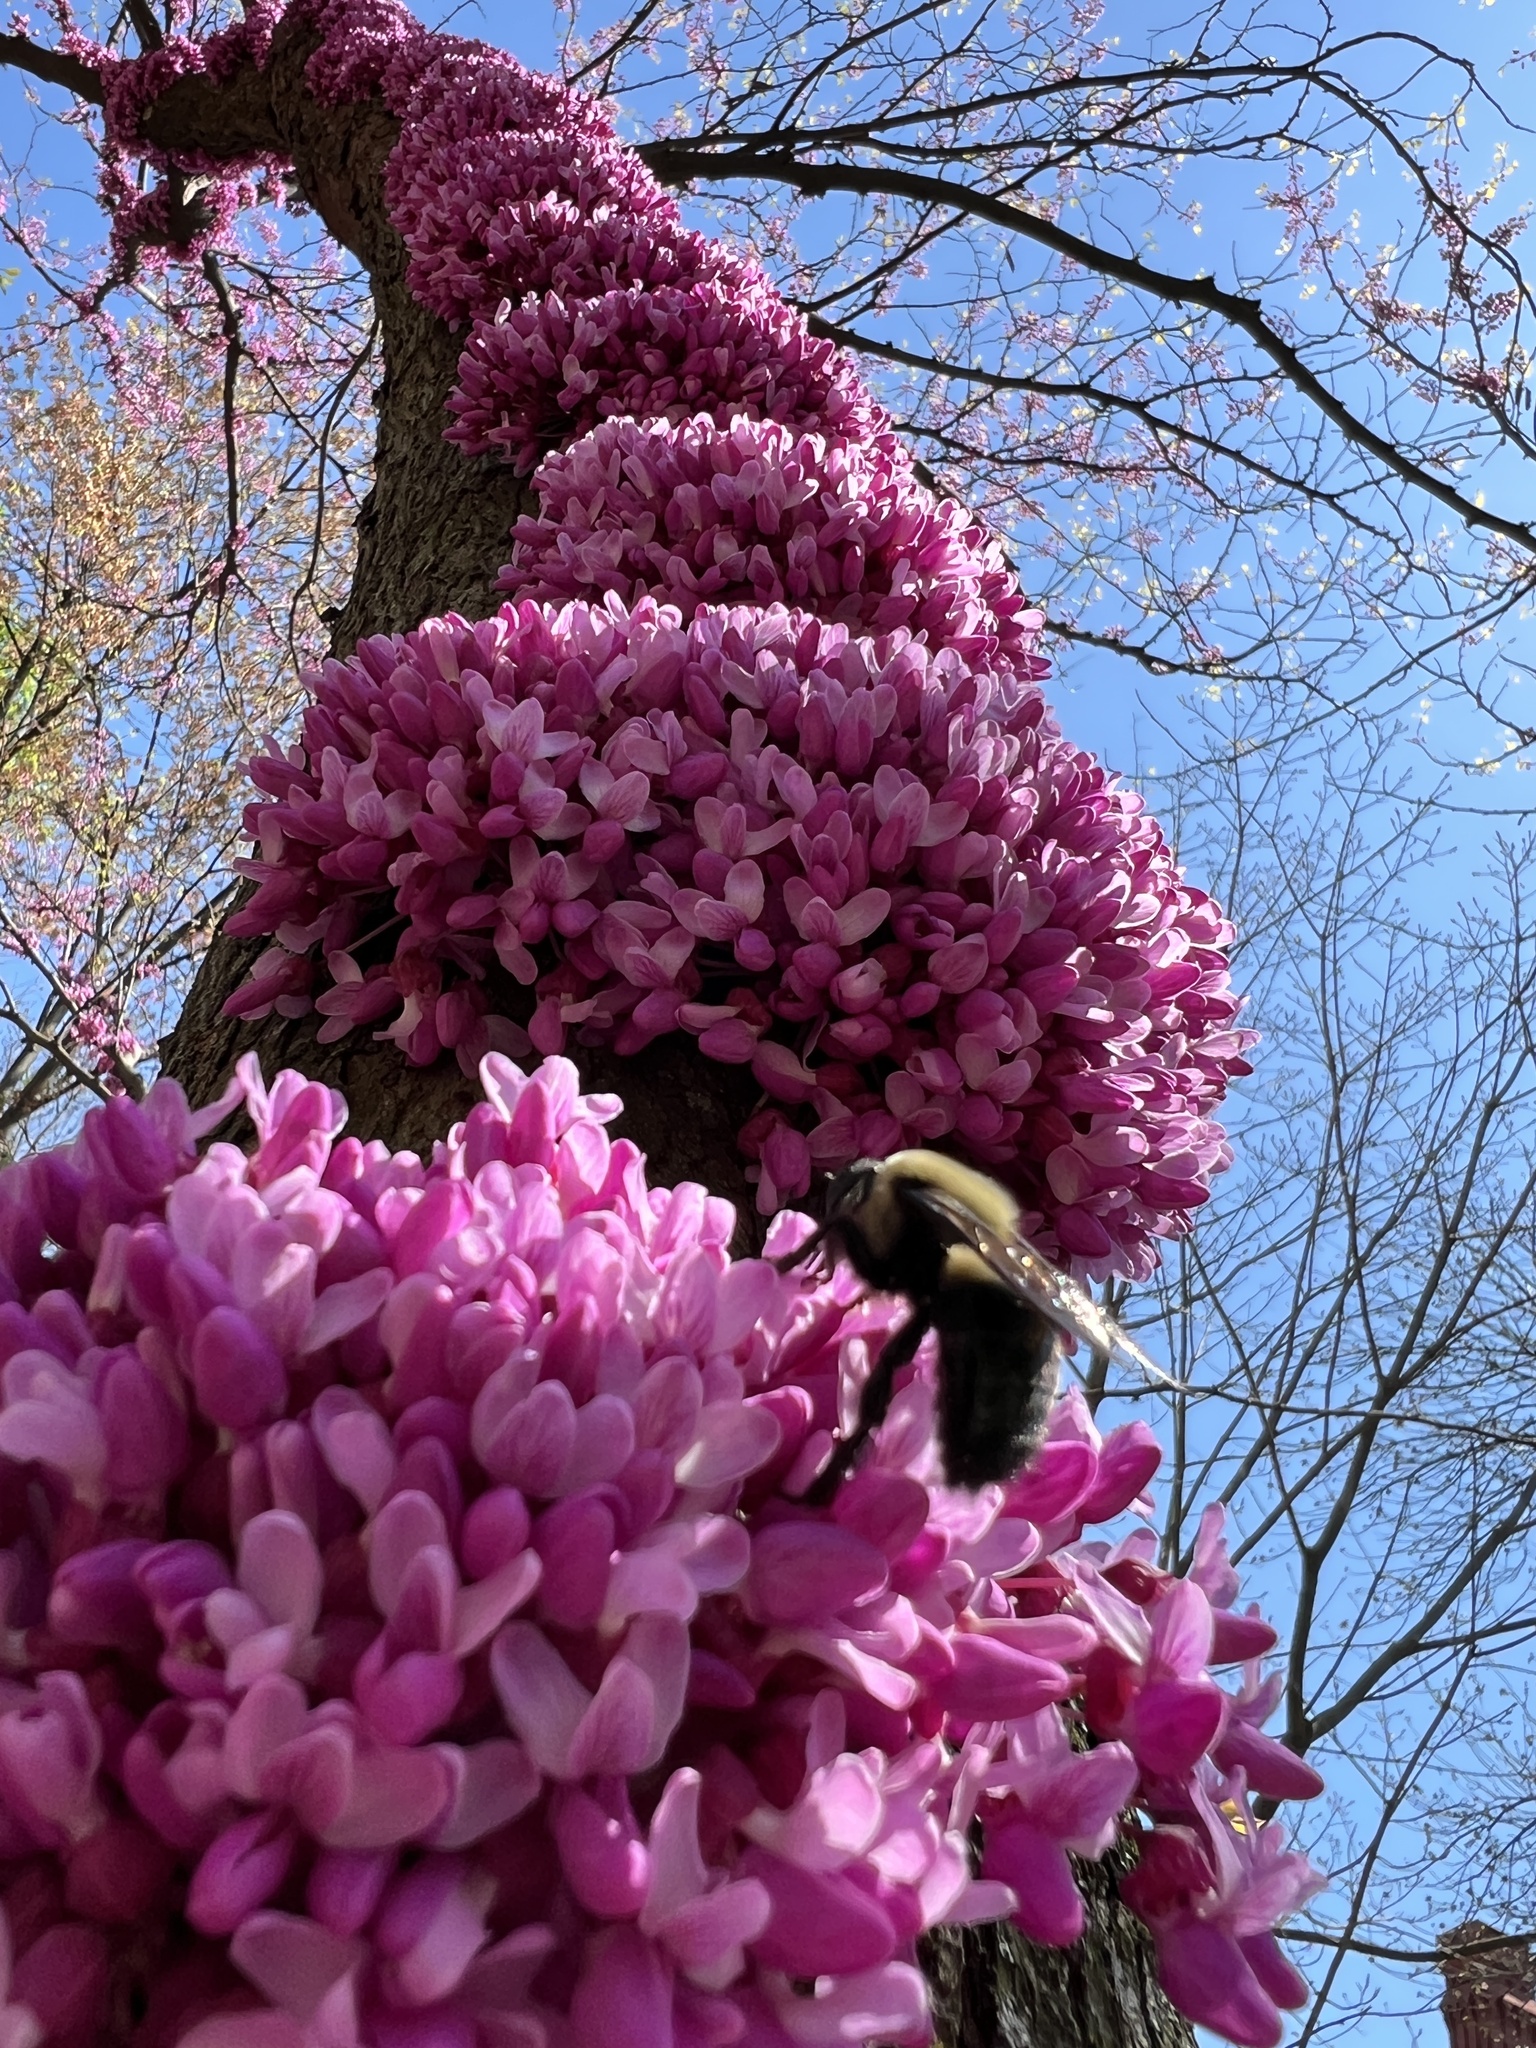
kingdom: Animalia
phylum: Arthropoda
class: Insecta
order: Hymenoptera
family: Apidae
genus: Xylocopa
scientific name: Xylocopa virginica
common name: Carpenter bee
